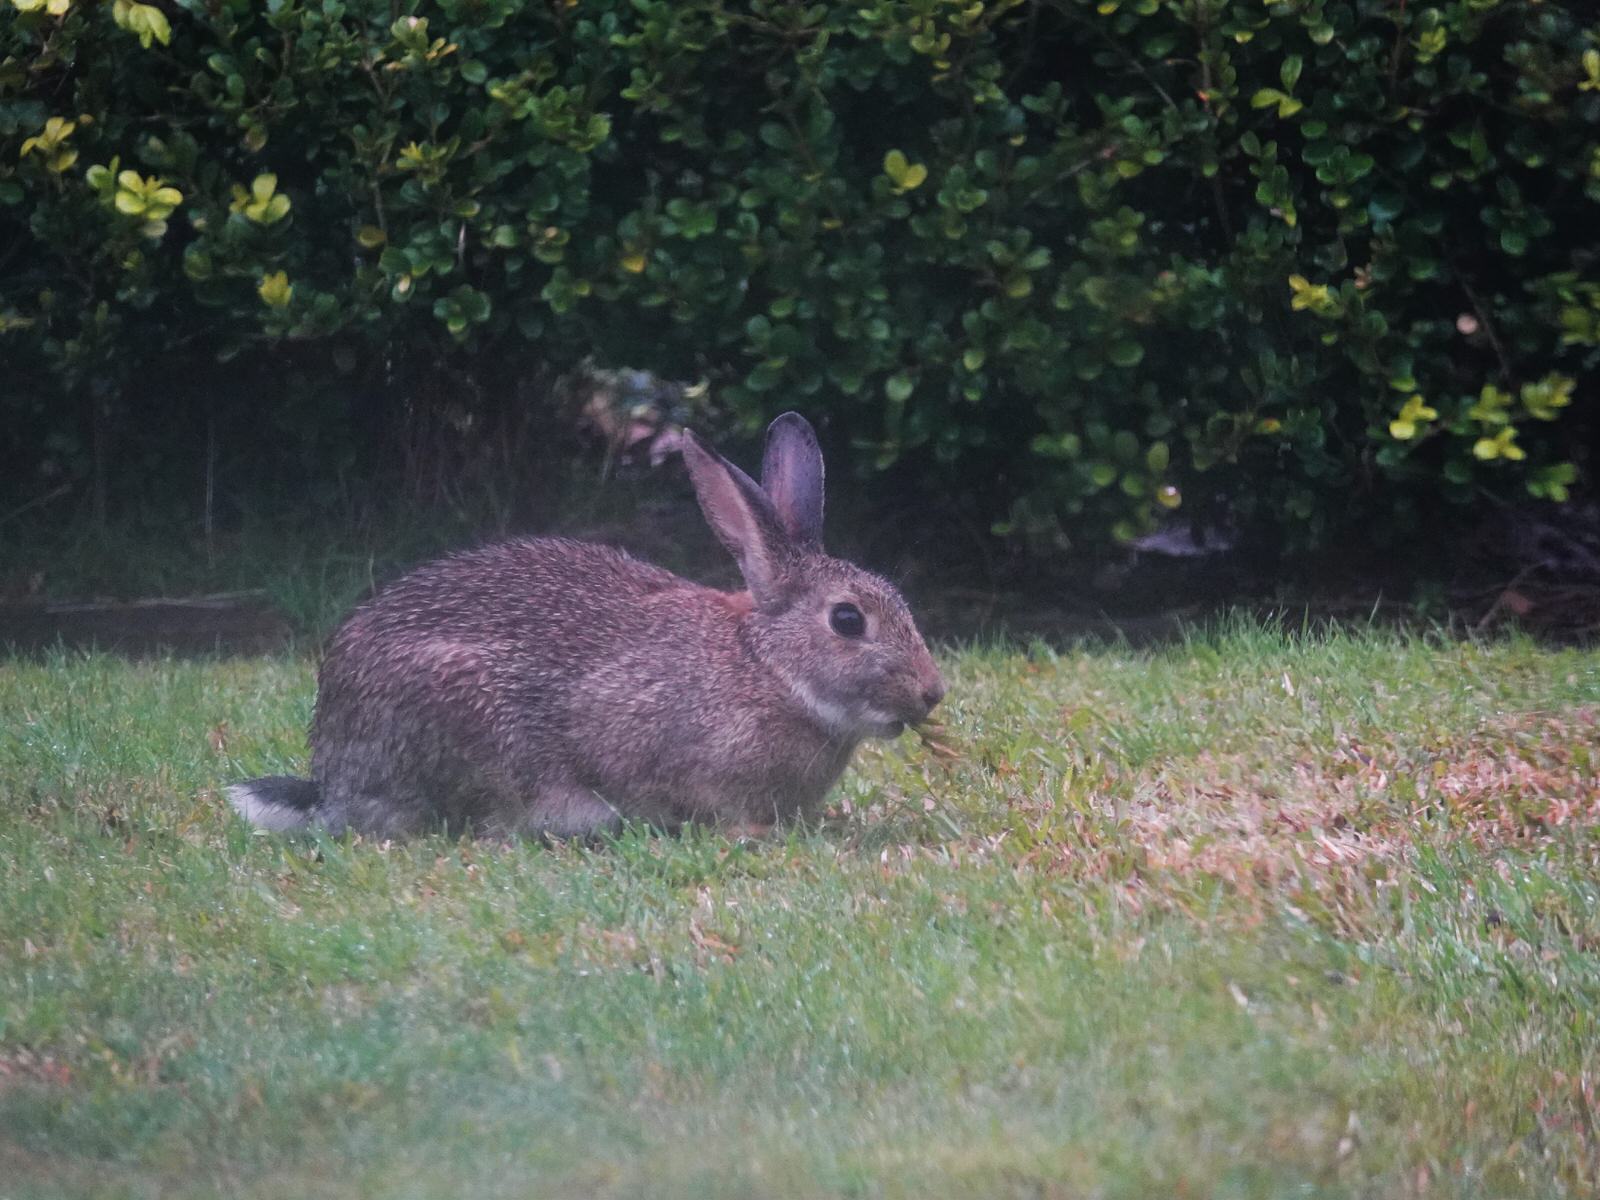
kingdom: Animalia
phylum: Chordata
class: Mammalia
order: Lagomorpha
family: Leporidae
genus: Oryctolagus
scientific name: Oryctolagus cuniculus
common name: European rabbit
